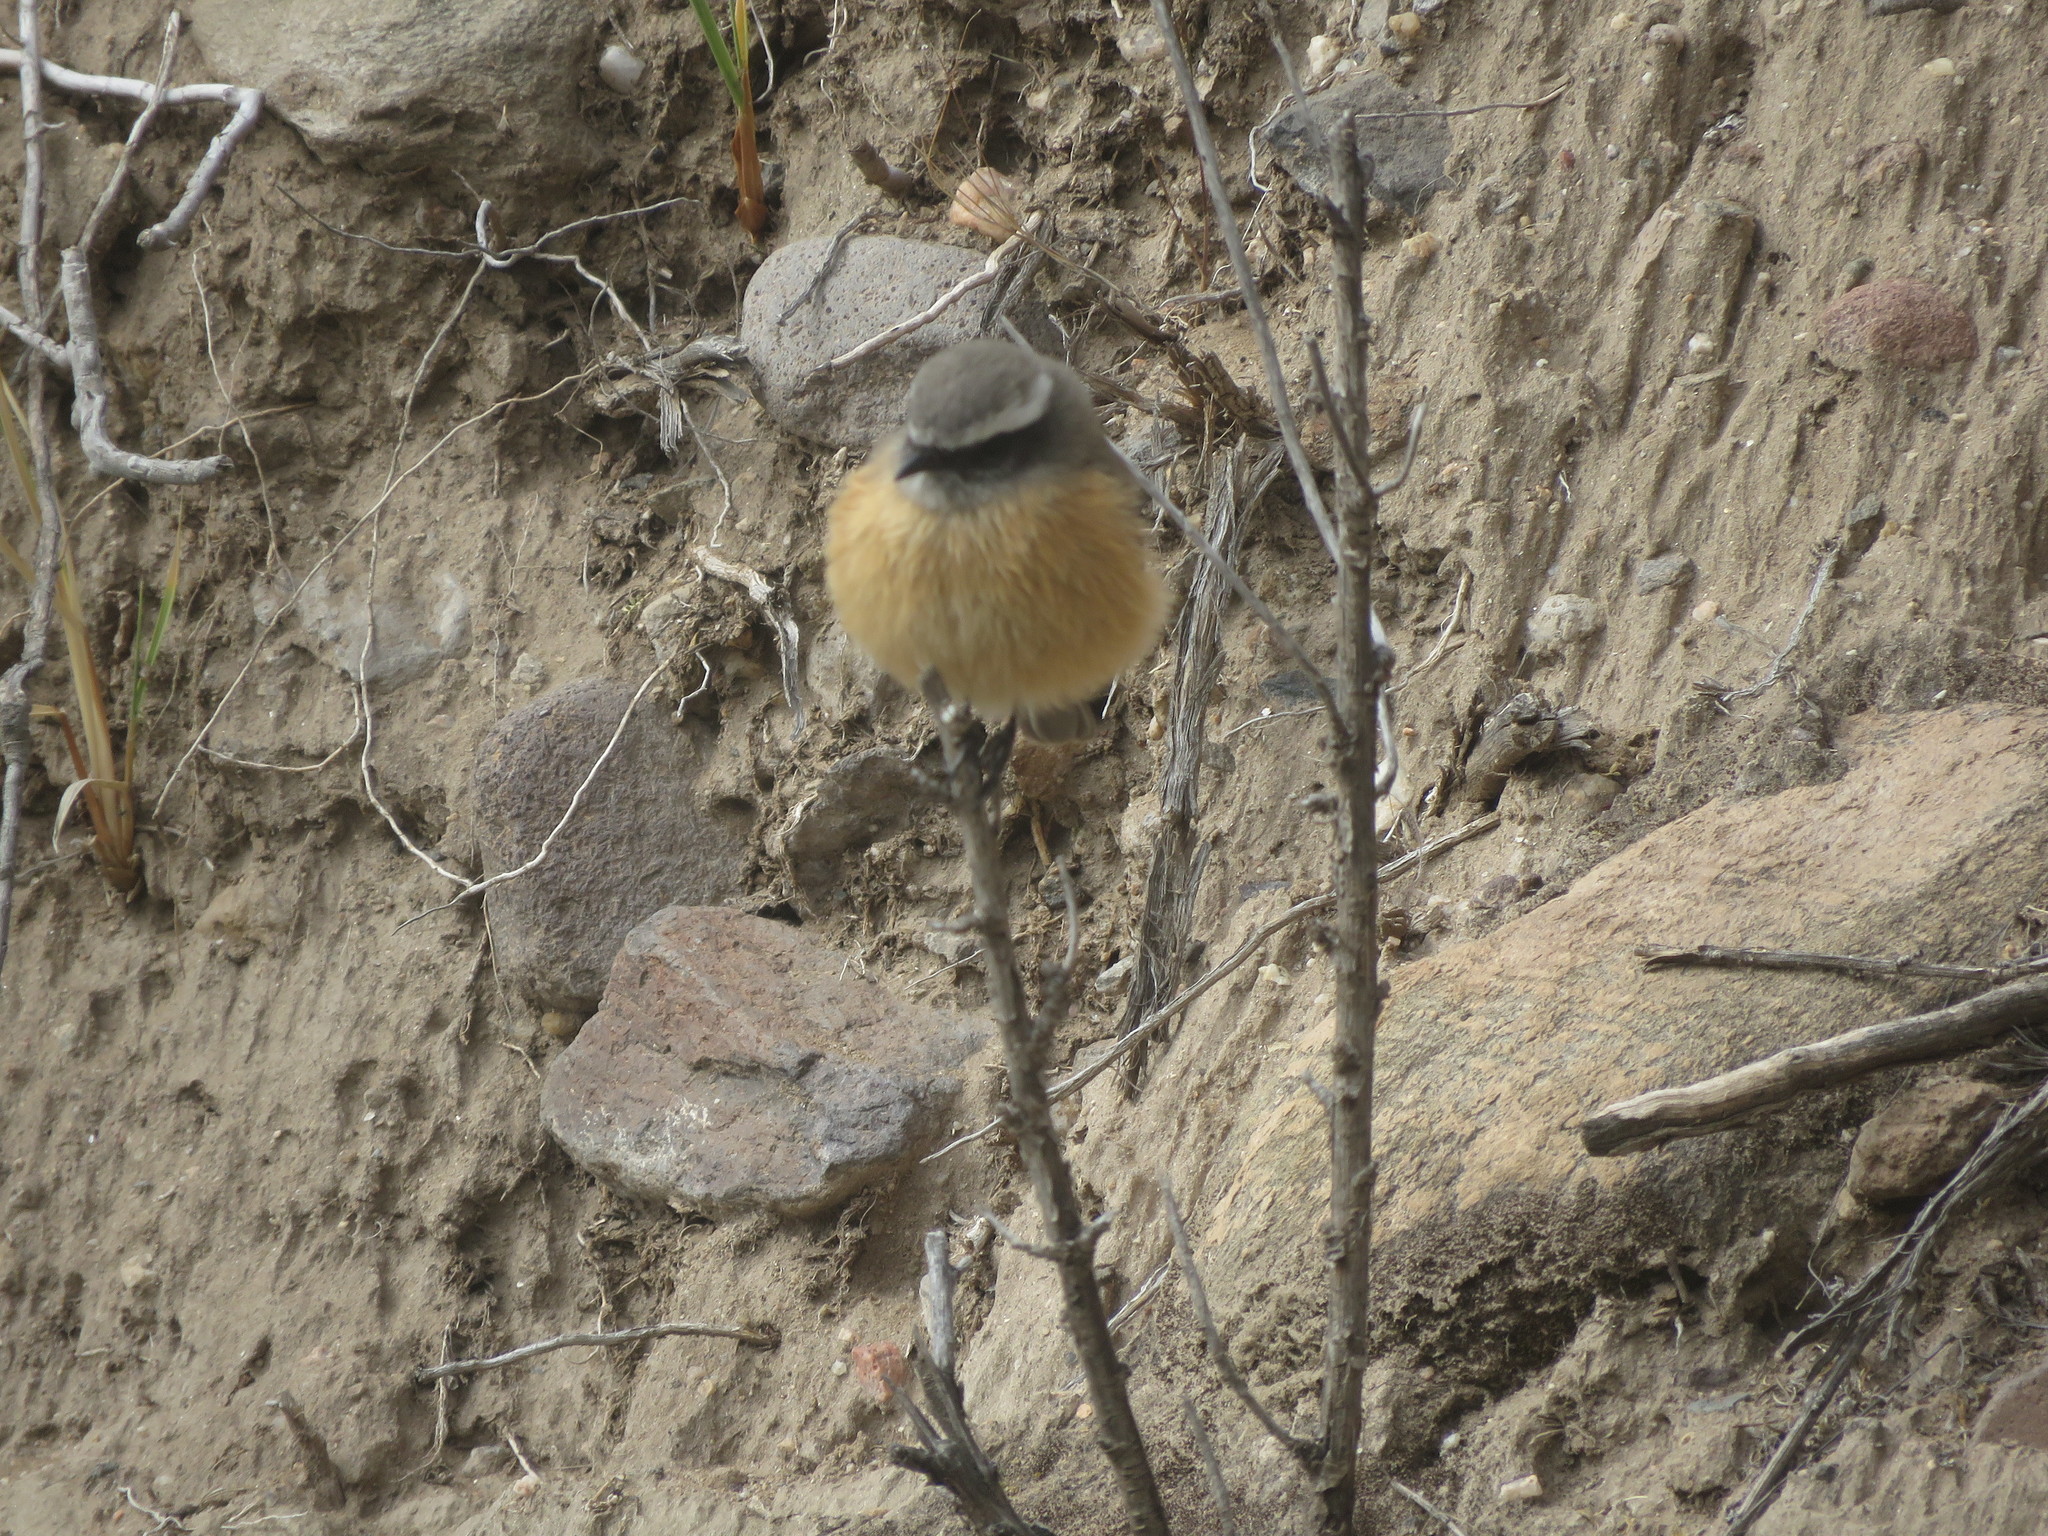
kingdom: Animalia
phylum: Chordata
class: Aves
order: Passeriformes
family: Tyrannidae
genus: Ochthoeca
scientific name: Ochthoeca oenanthoides
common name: D'orbigny's chat-tyrant
